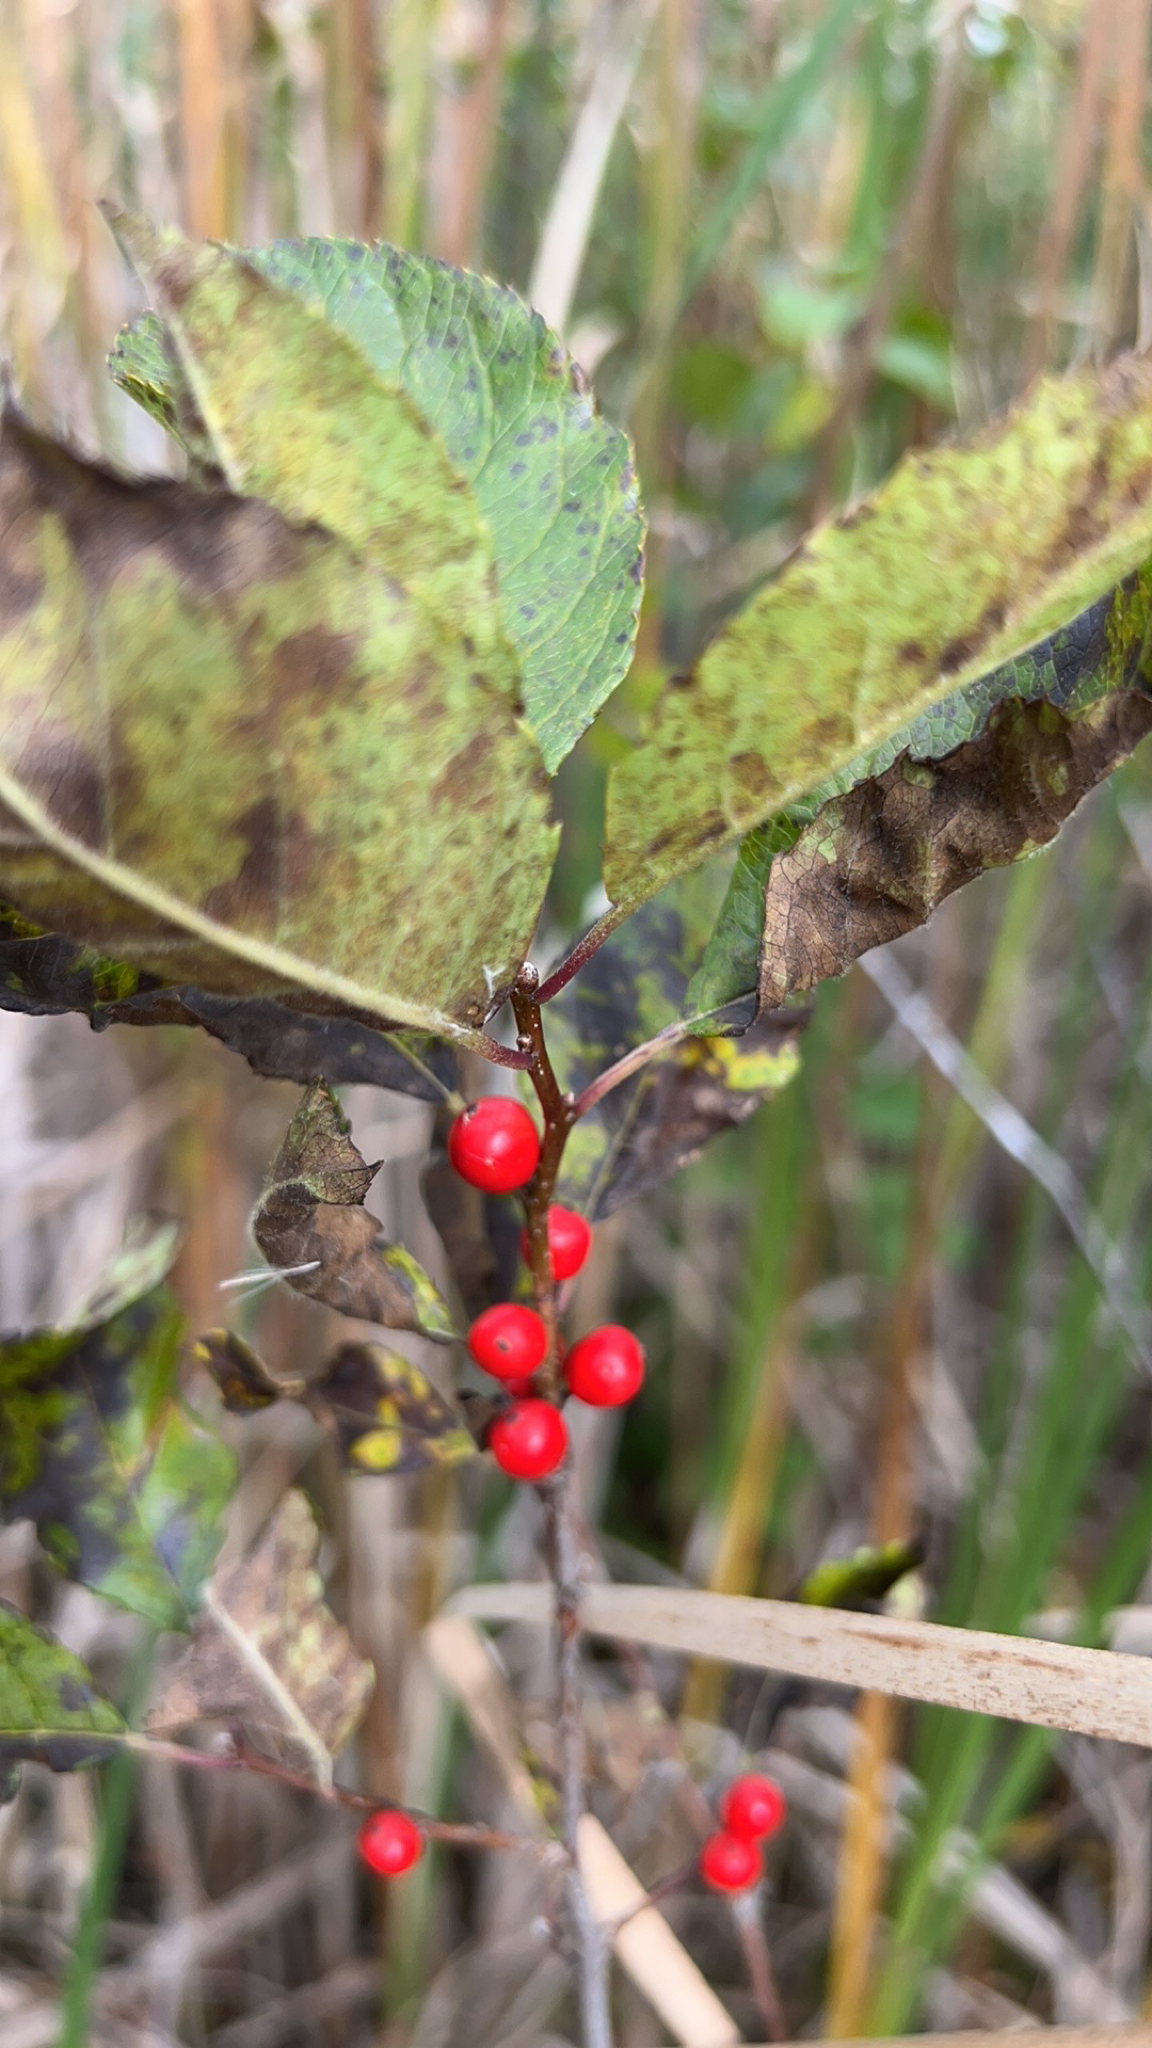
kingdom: Plantae
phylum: Tracheophyta
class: Magnoliopsida
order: Aquifoliales
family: Aquifoliaceae
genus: Ilex
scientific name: Ilex verticillata
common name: Virginia winterberry
